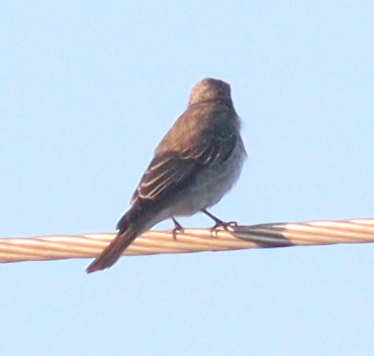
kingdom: Animalia
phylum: Chordata
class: Aves
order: Passeriformes
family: Muscicapidae
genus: Muscicapa
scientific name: Muscicapa striata
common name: Spotted flycatcher
